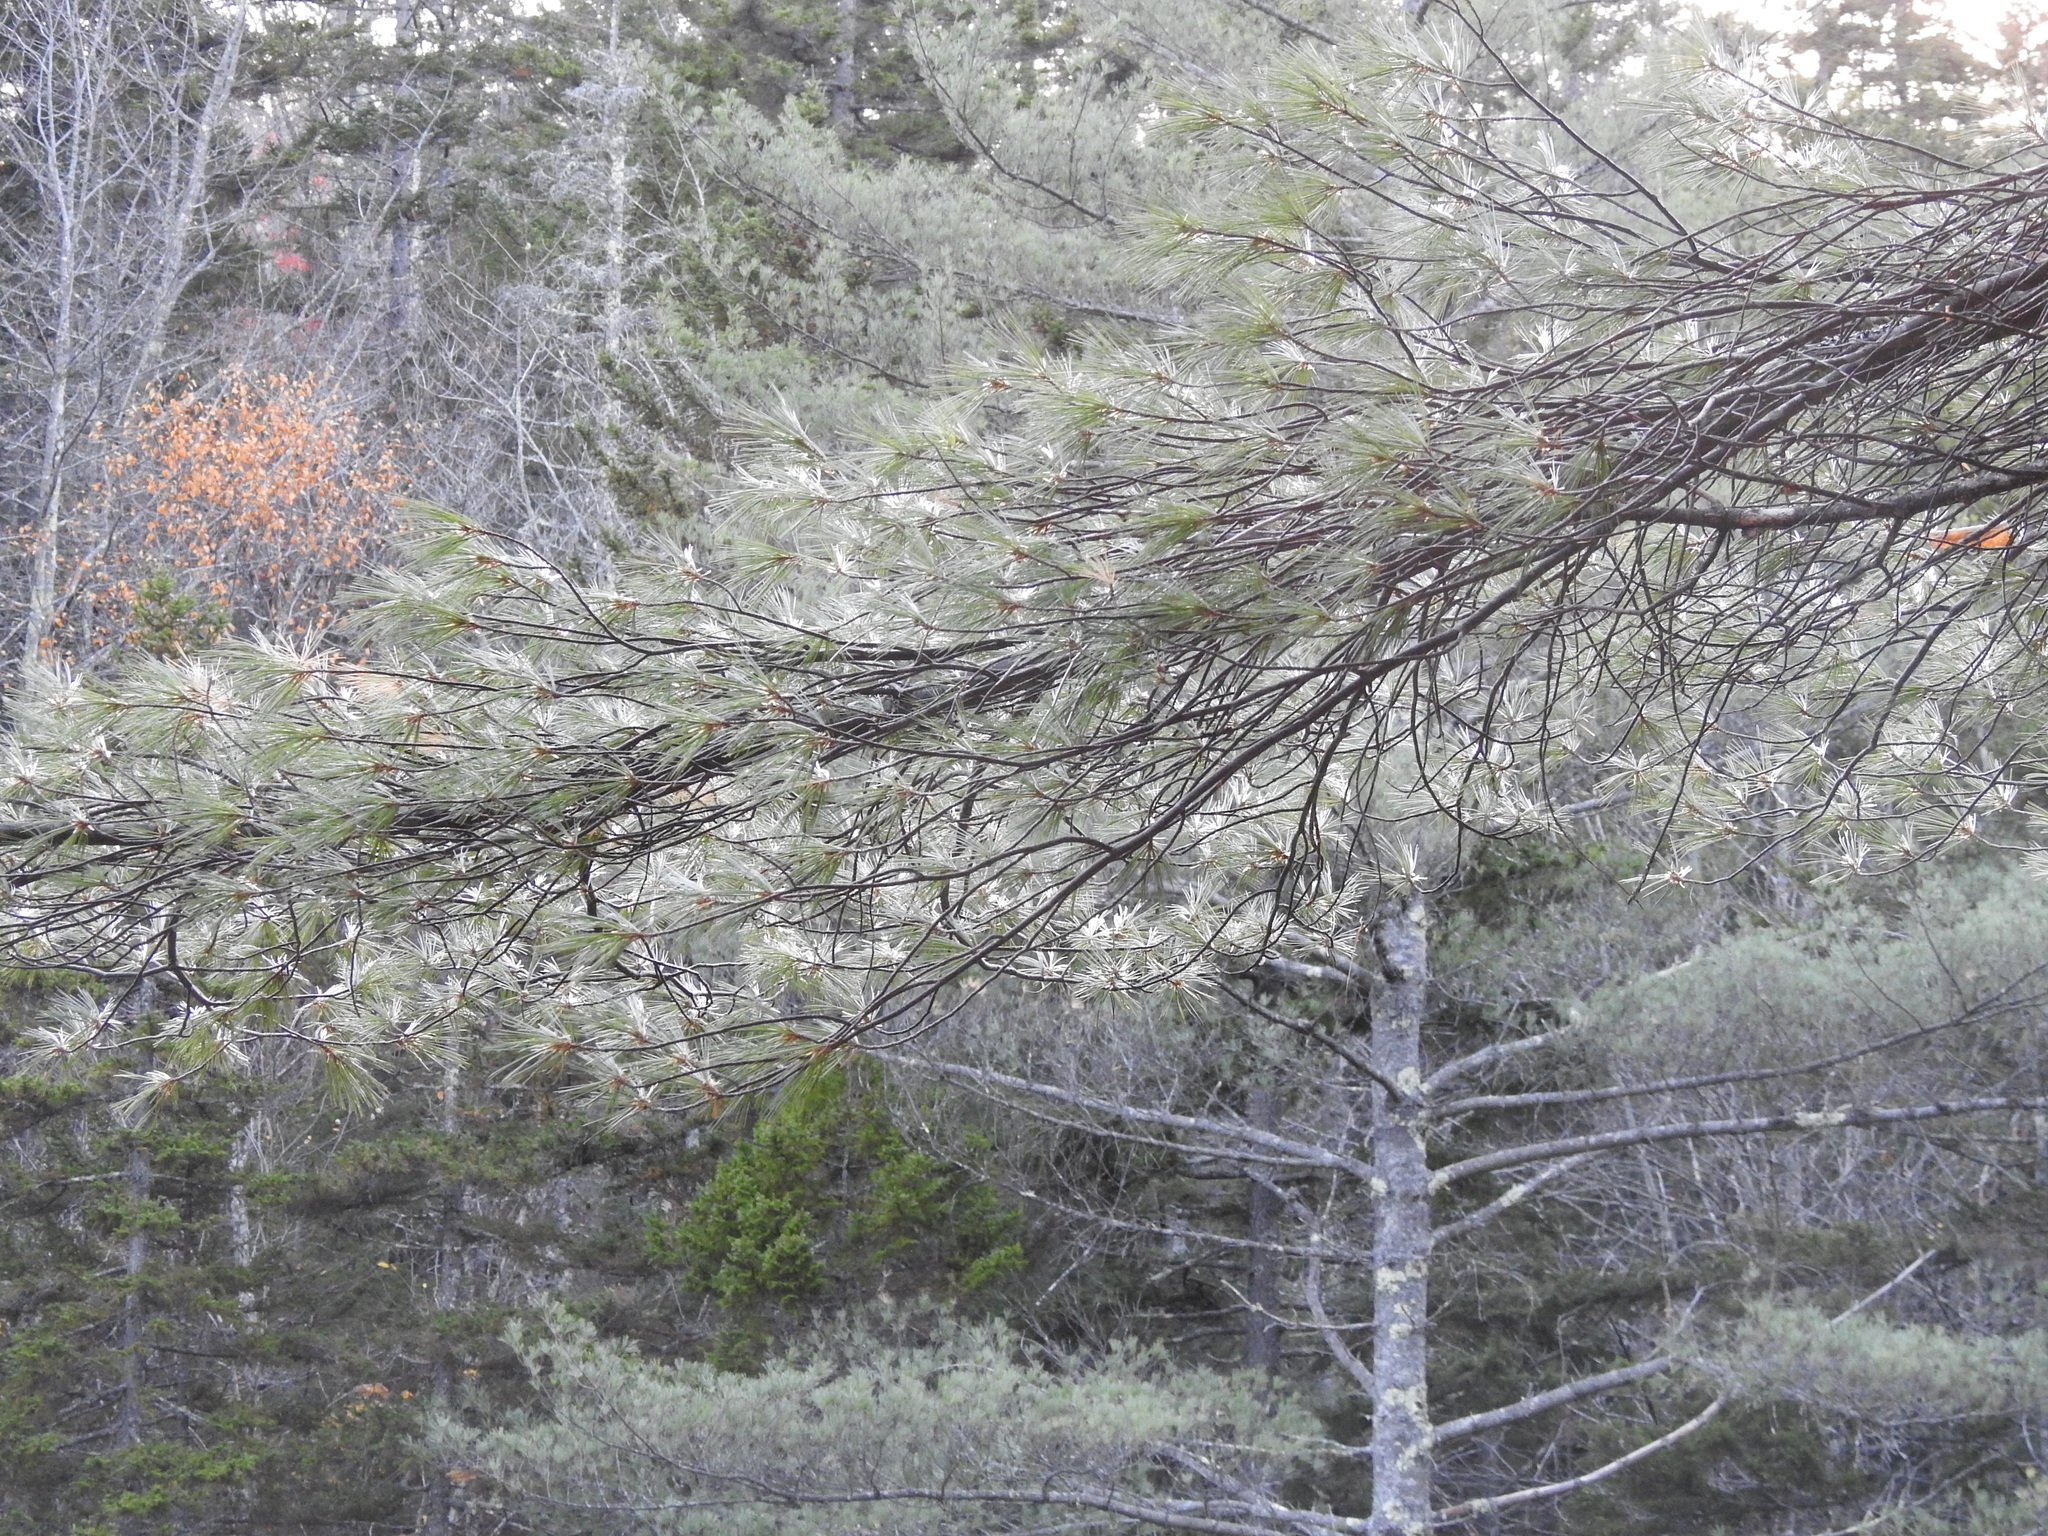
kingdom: Plantae
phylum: Tracheophyta
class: Pinopsida
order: Pinales
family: Pinaceae
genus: Pinus
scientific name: Pinus strobus
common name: Weymouth pine
